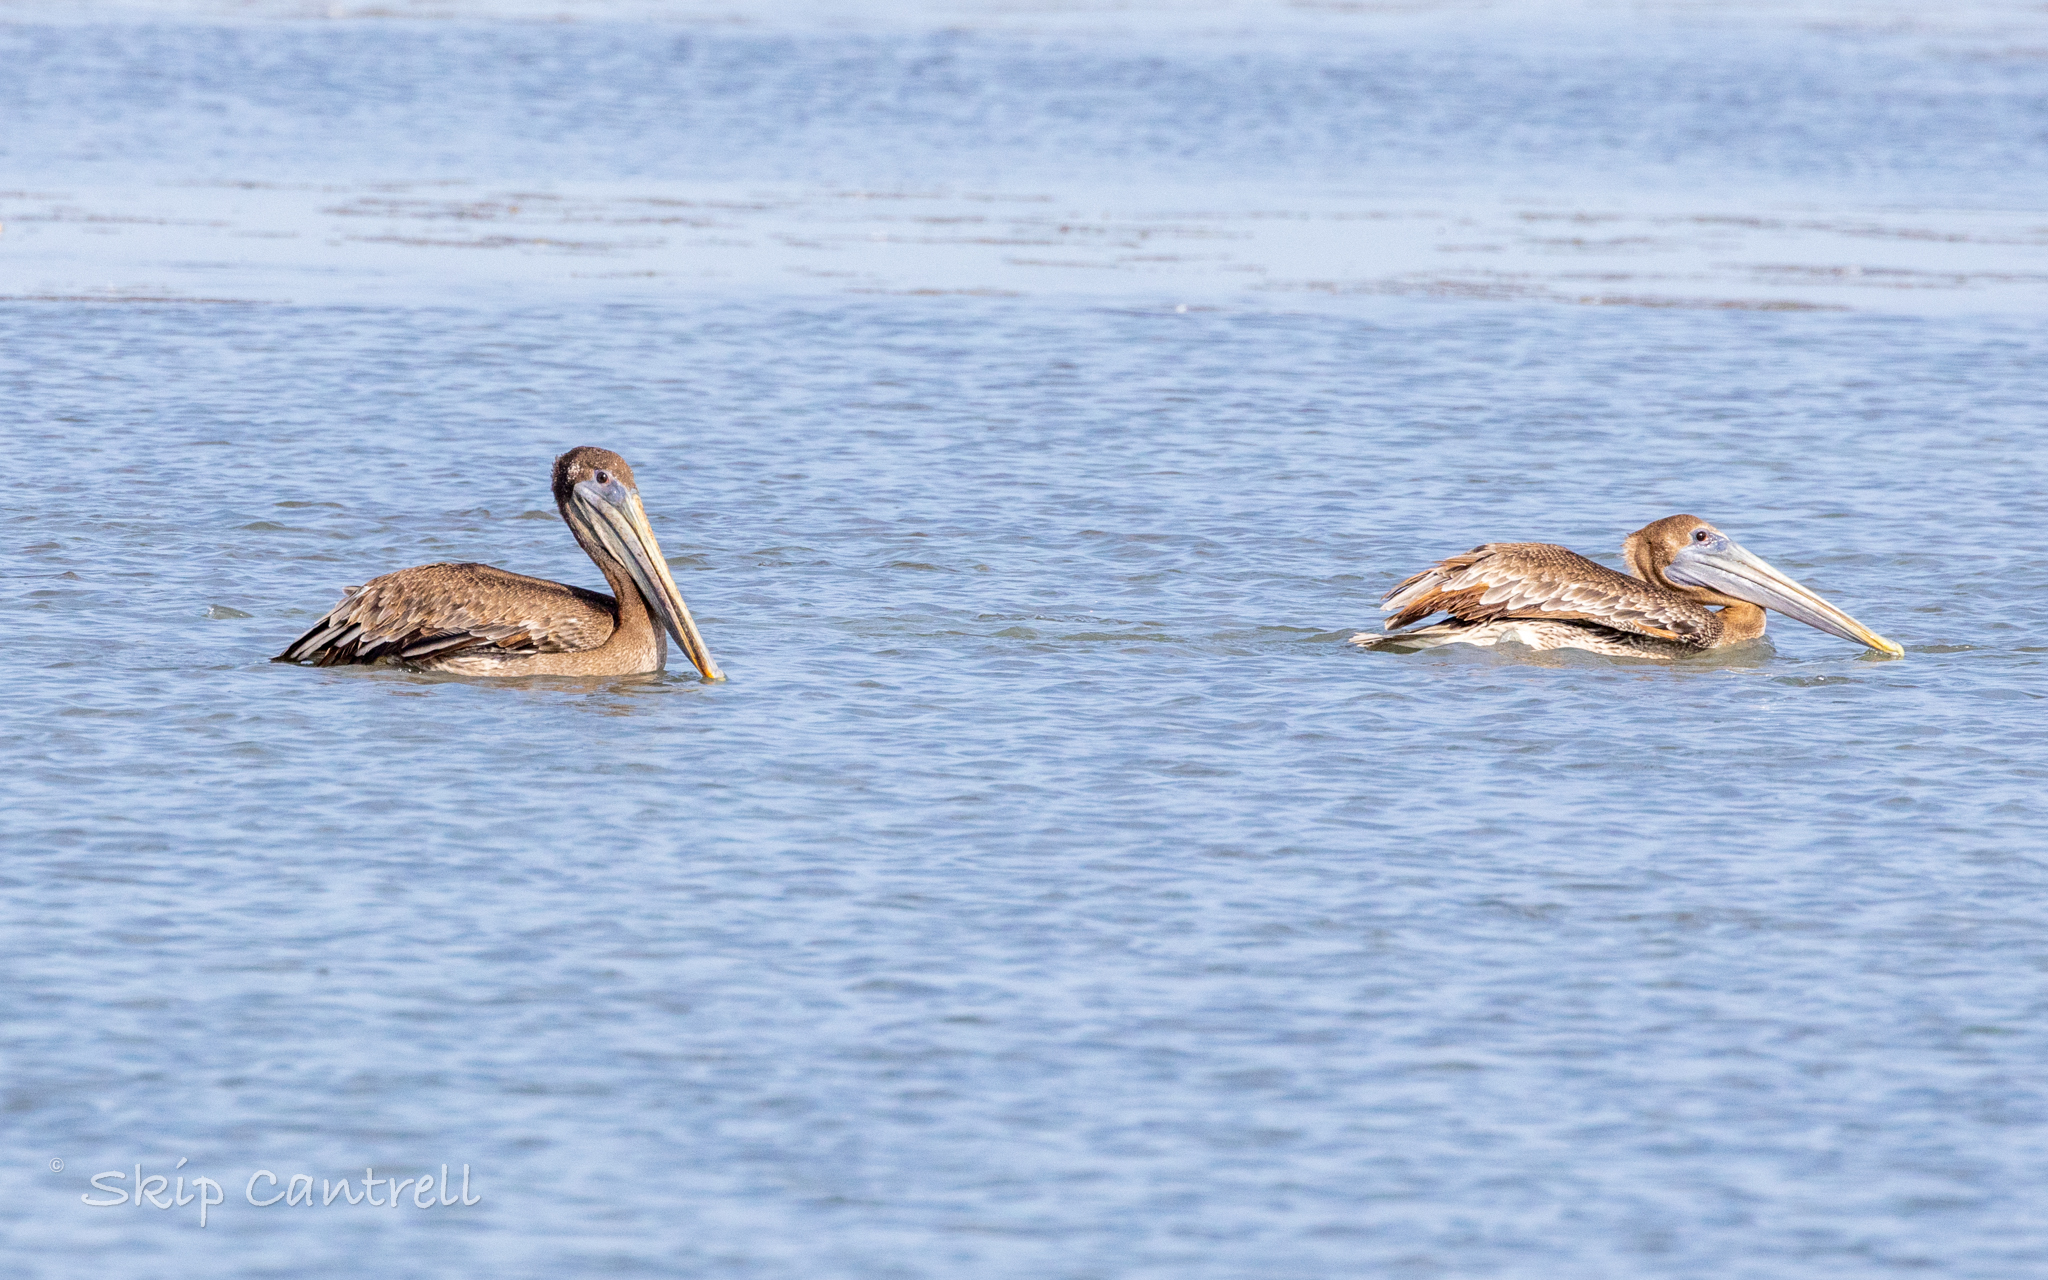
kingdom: Animalia
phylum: Chordata
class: Aves
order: Pelecaniformes
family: Pelecanidae
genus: Pelecanus
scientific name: Pelecanus occidentalis
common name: Brown pelican
